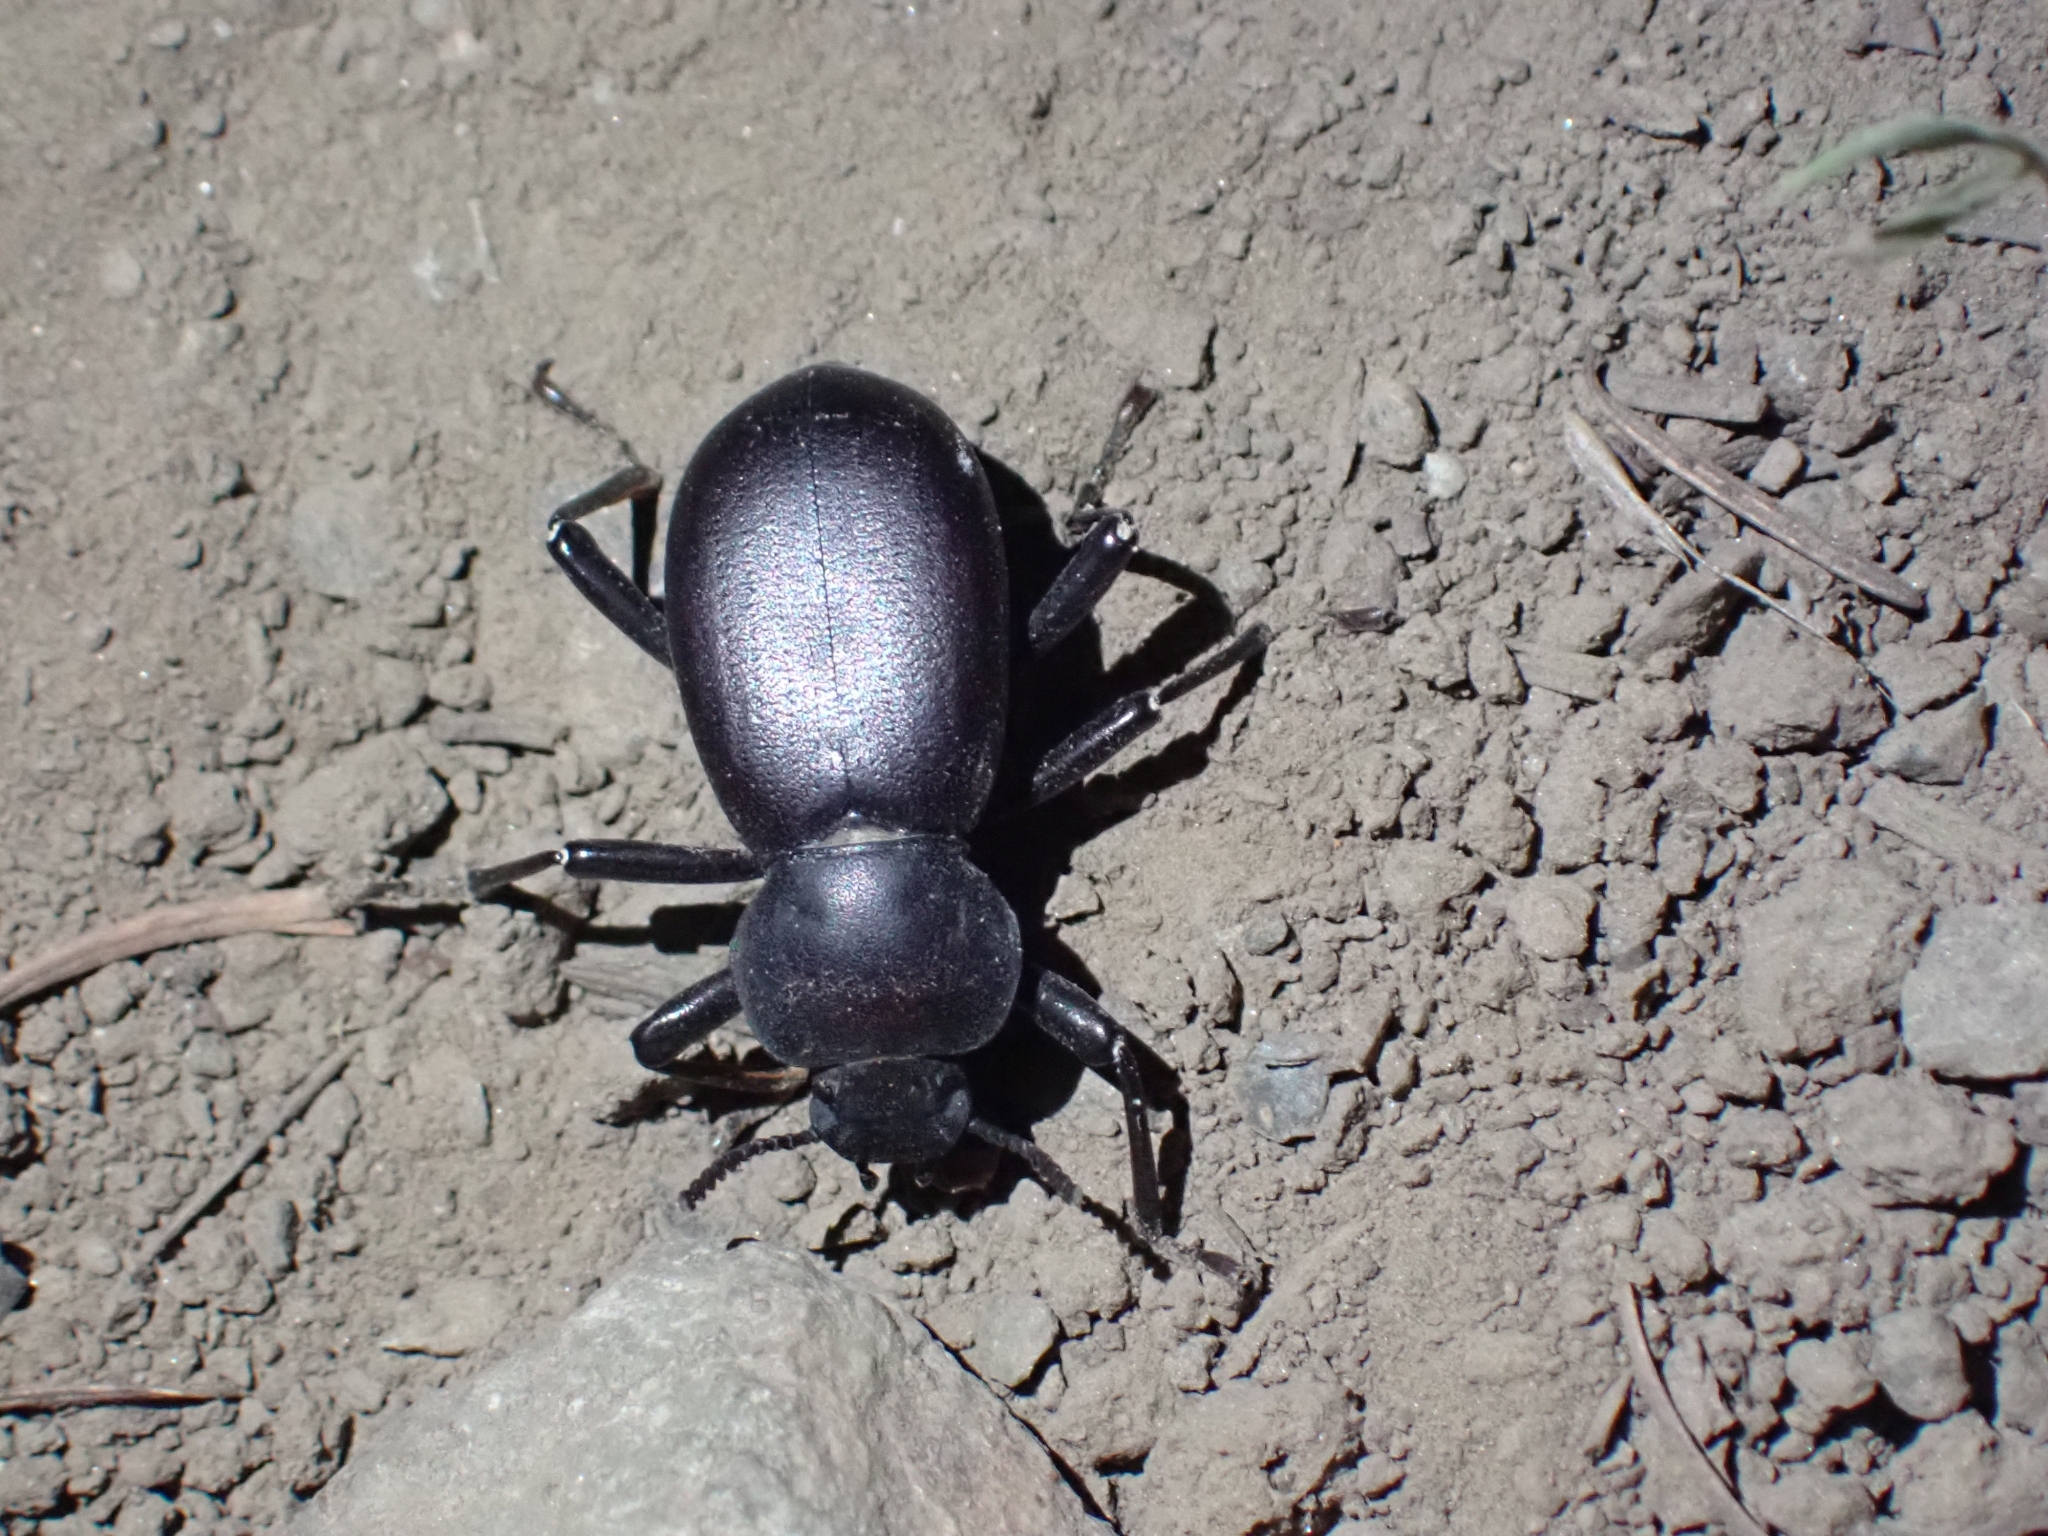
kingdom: Animalia
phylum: Arthropoda
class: Insecta
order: Coleoptera
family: Tenebrionidae
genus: Coelocnemis
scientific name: Coelocnemis dilaticollis
